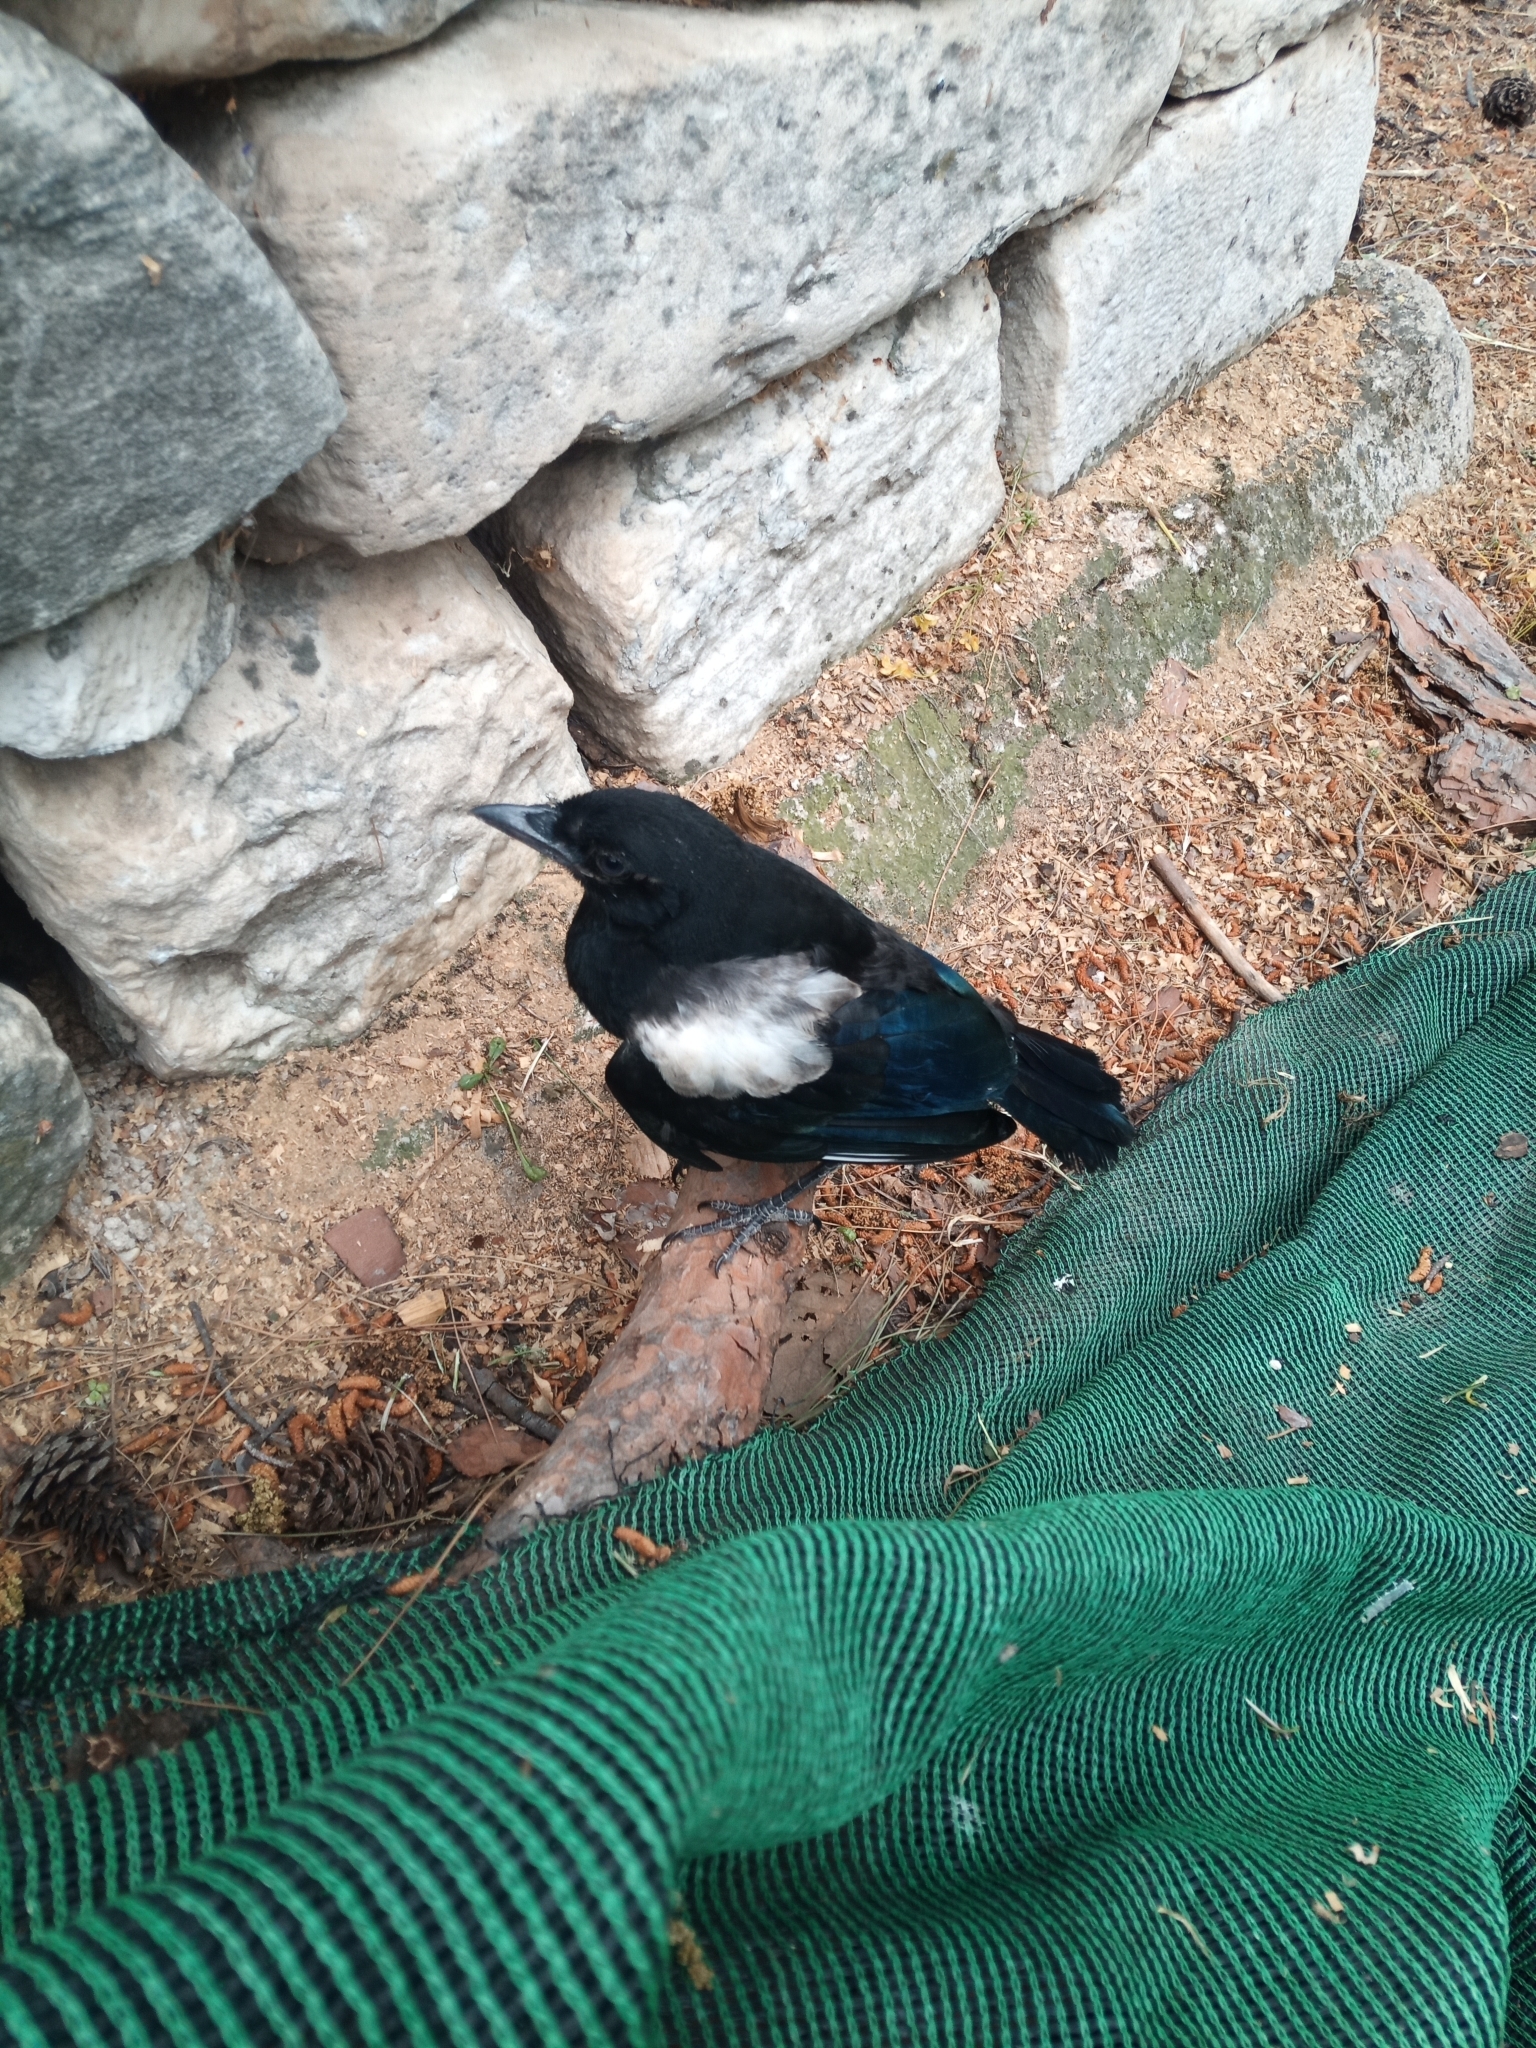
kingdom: Animalia
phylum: Chordata
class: Aves
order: Passeriformes
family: Corvidae
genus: Pica
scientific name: Pica pica
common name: Eurasian magpie
